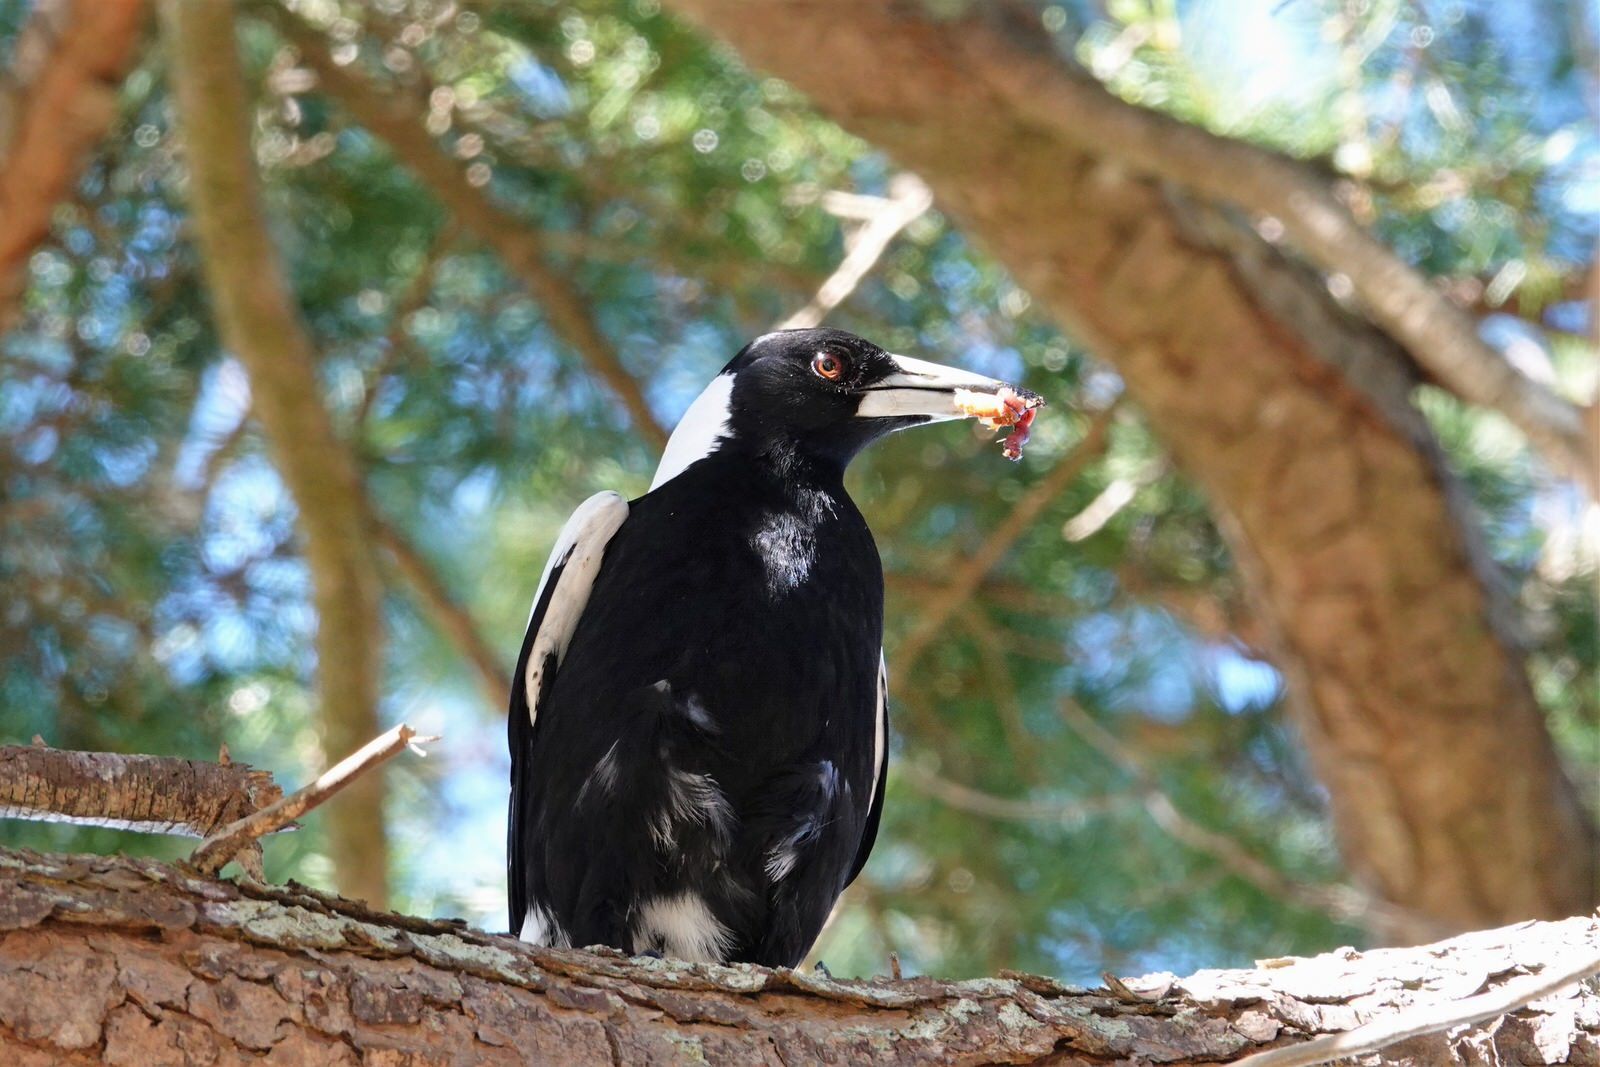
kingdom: Animalia
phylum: Chordata
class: Aves
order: Passeriformes
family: Cracticidae
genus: Gymnorhina
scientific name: Gymnorhina tibicen
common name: Australian magpie
